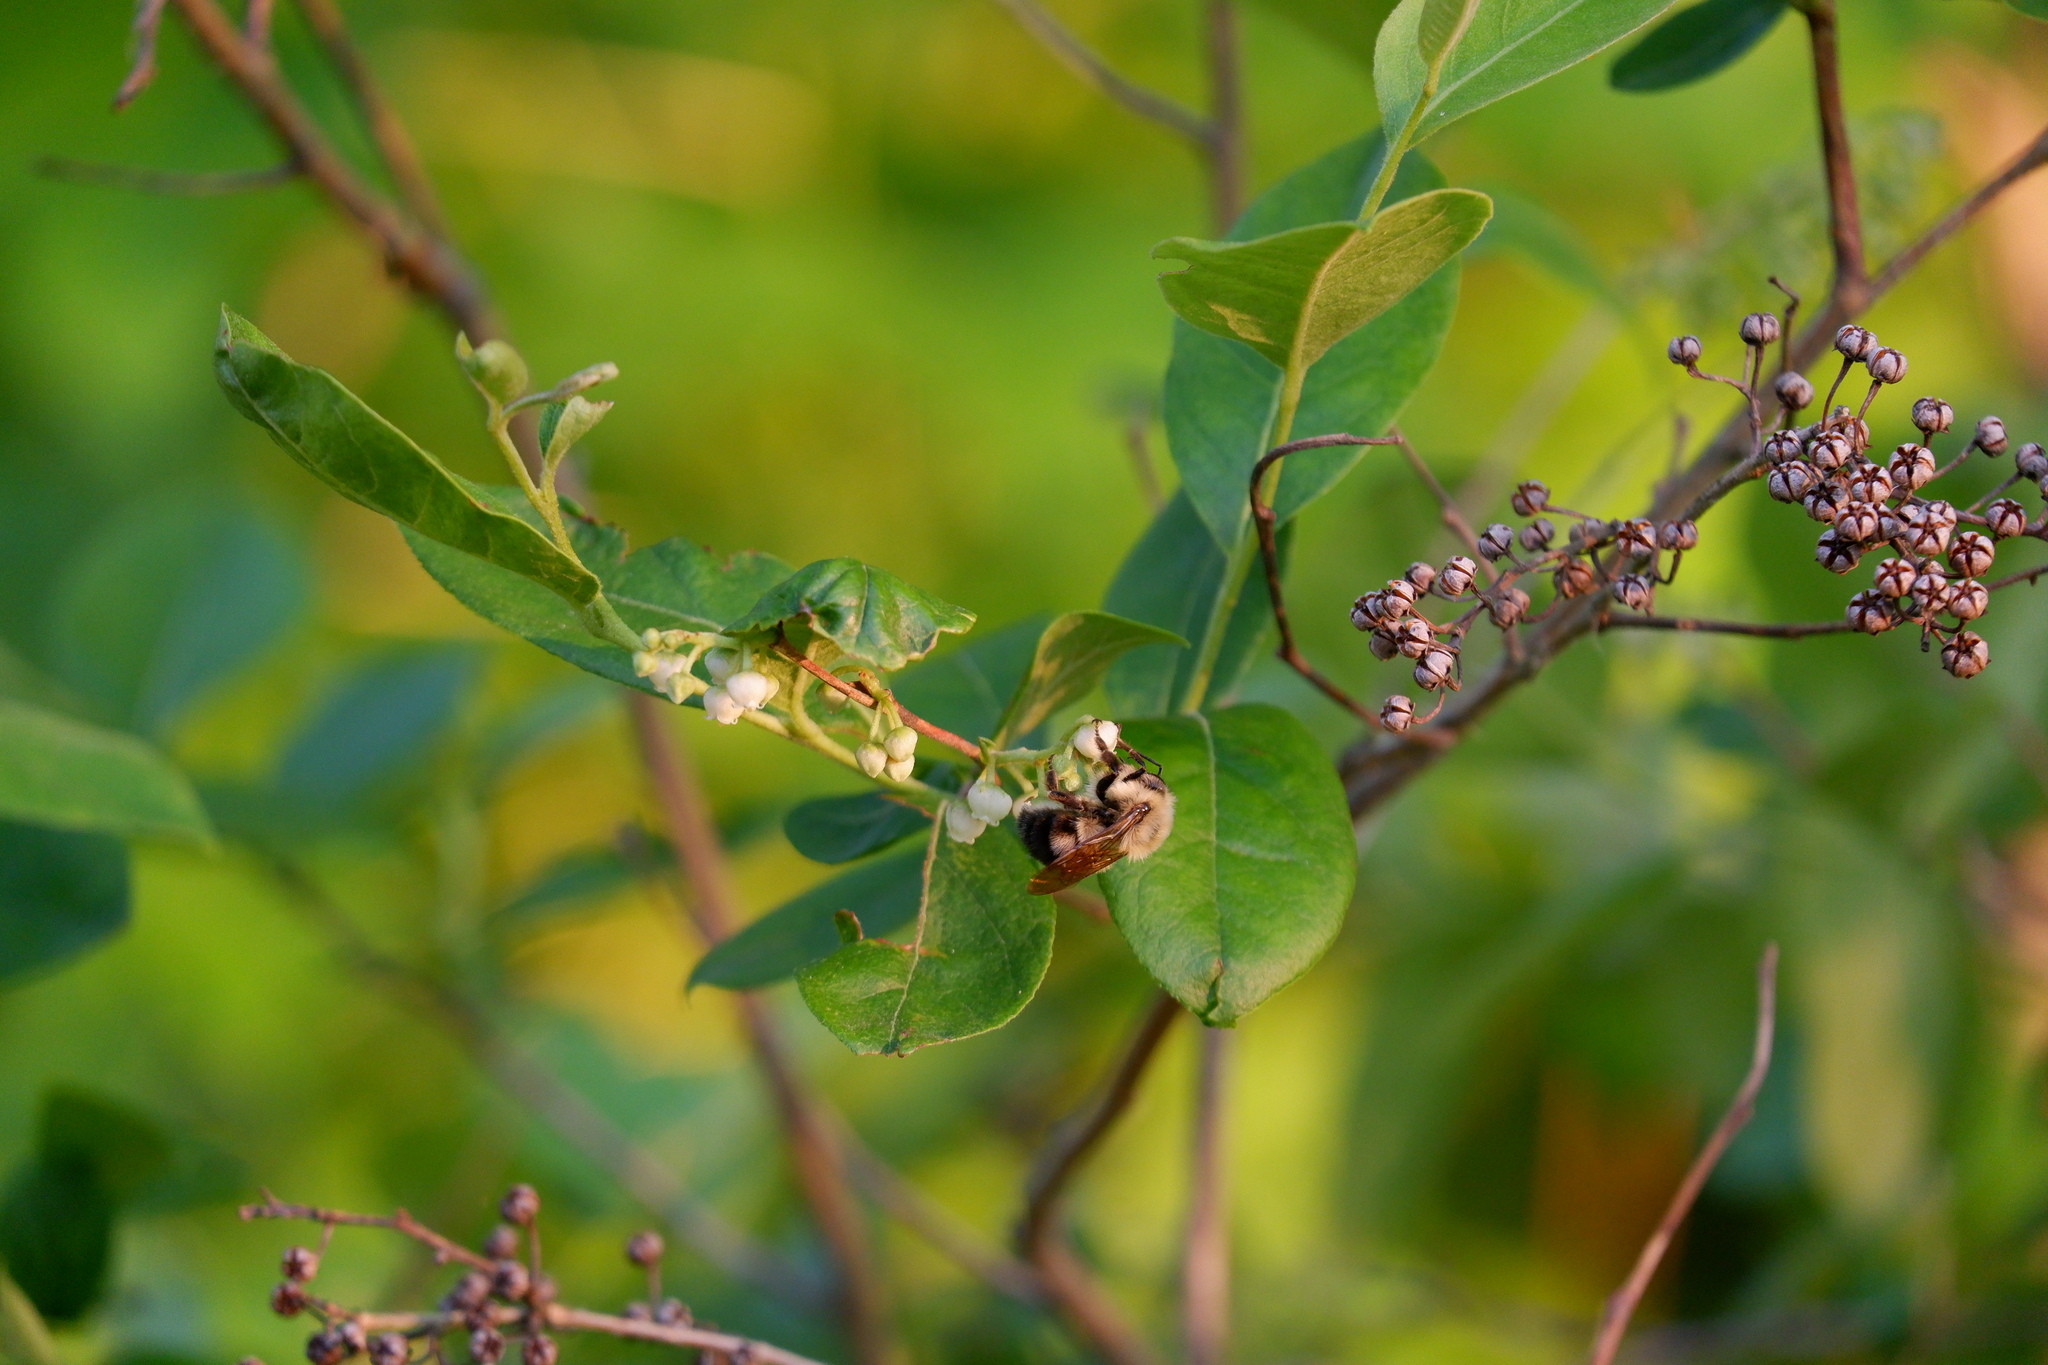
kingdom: Animalia
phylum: Arthropoda
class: Insecta
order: Hymenoptera
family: Apidae
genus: Bombus
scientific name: Bombus bimaculatus
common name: Two-spotted bumble bee
